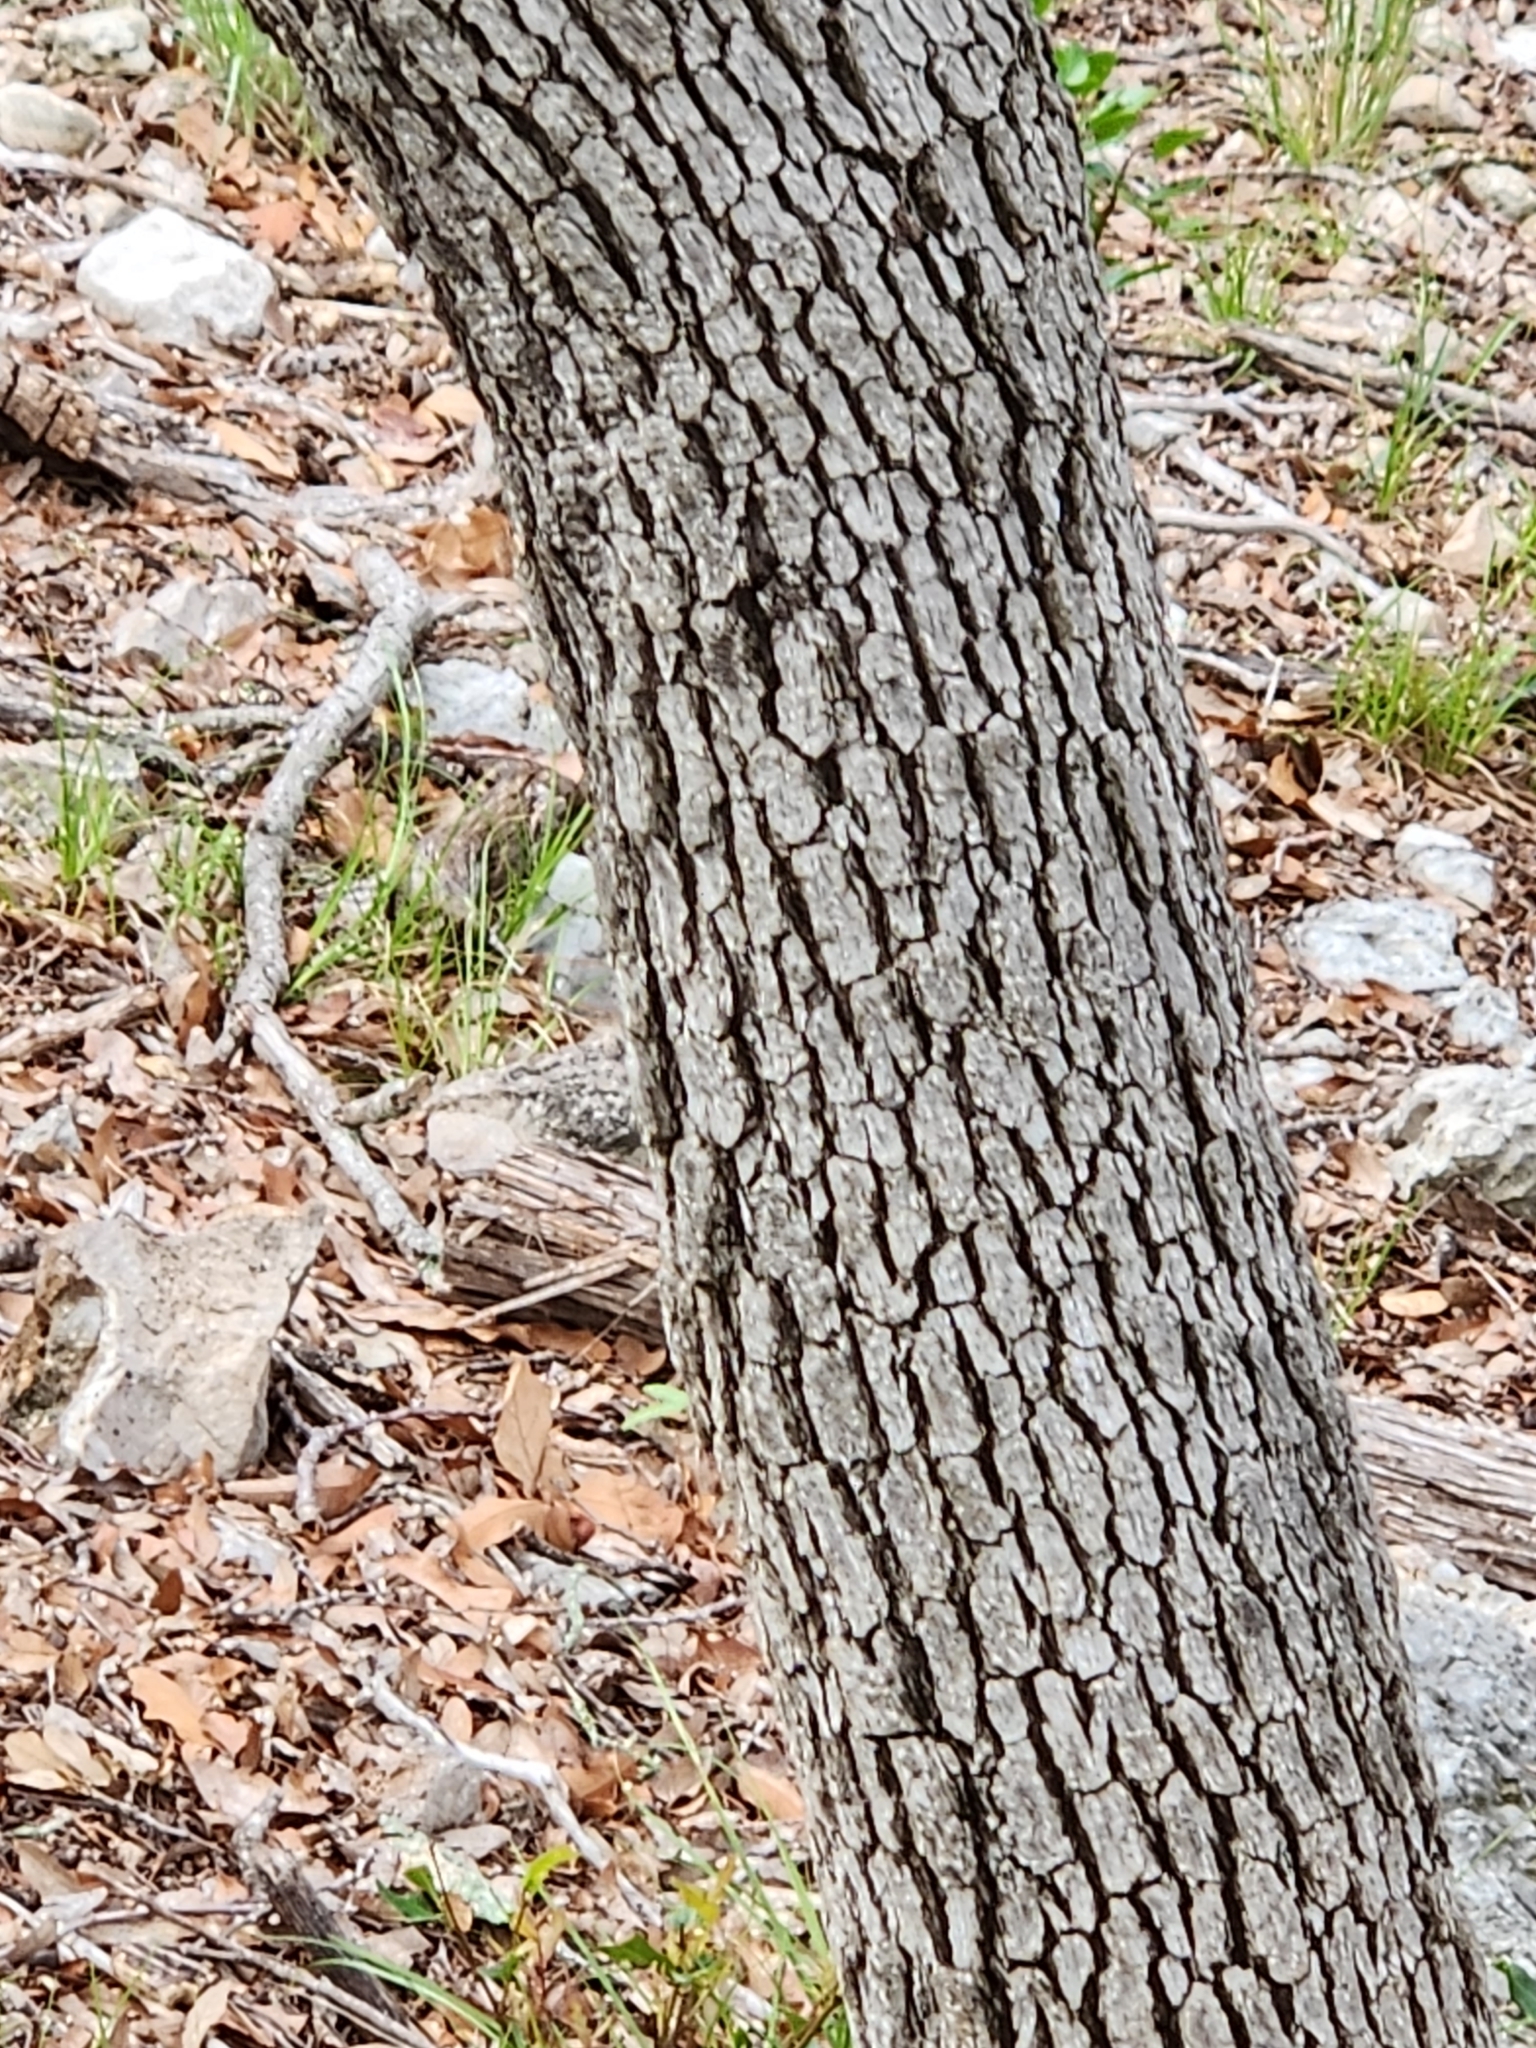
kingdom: Plantae
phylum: Tracheophyta
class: Magnoliopsida
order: Fagales
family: Fagaceae
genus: Quercus
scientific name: Quercus laceyi
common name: Lacey oak
